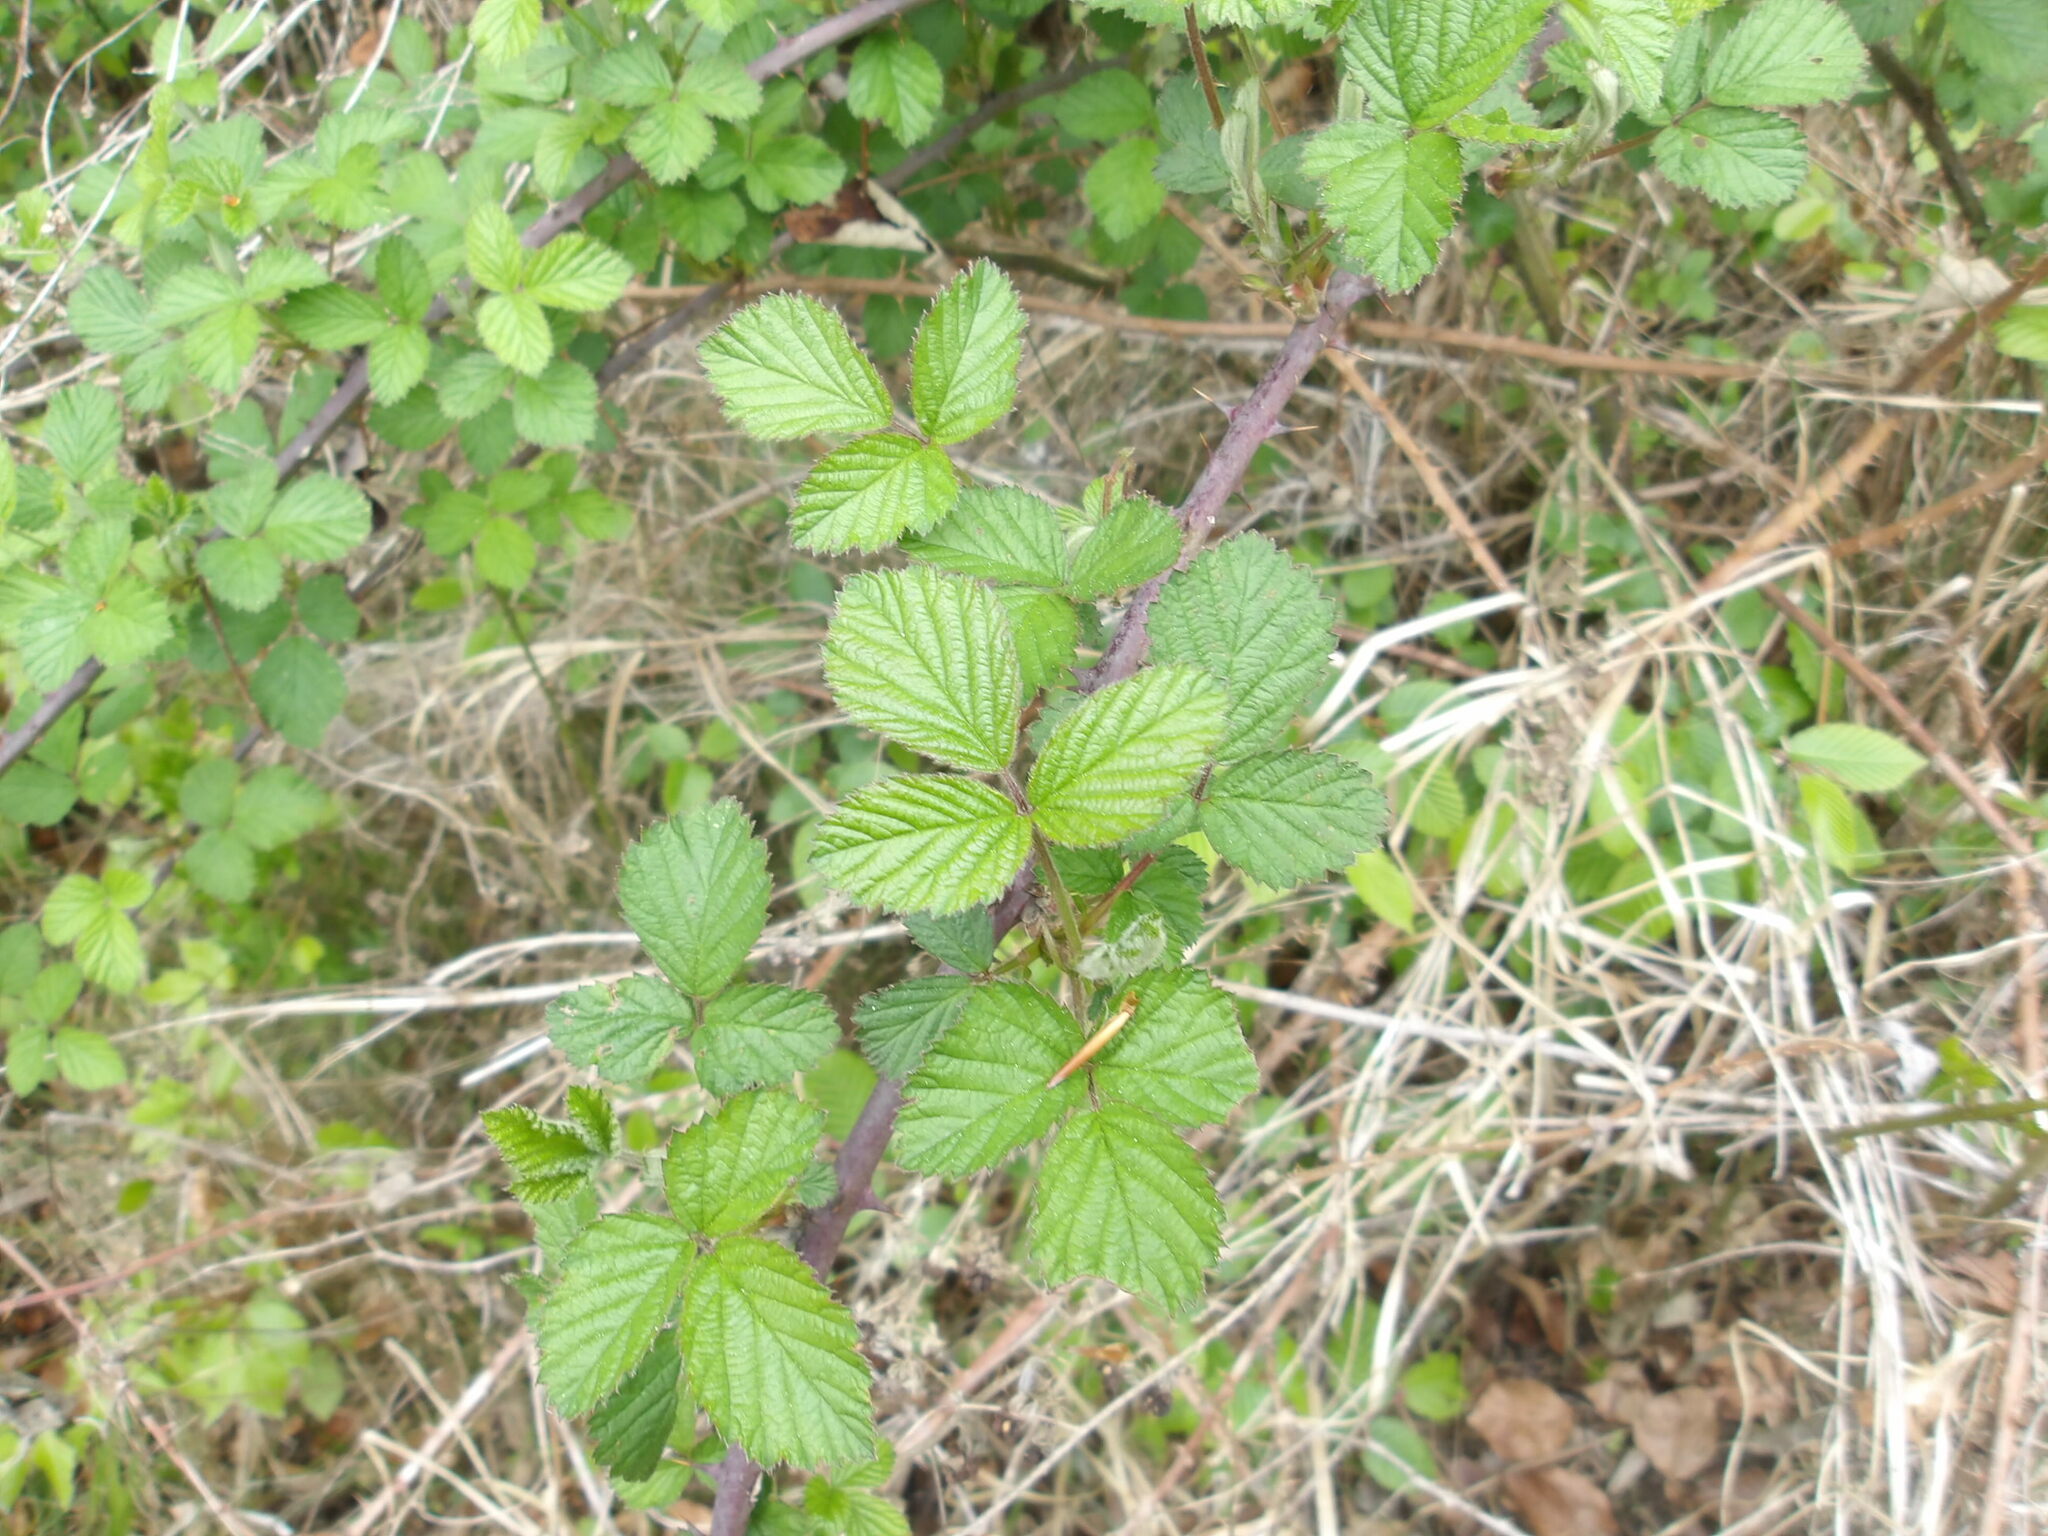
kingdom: Plantae
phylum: Tracheophyta
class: Magnoliopsida
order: Rosales
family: Rosaceae
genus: Rubus
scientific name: Rubus caesius
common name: Dewberry
